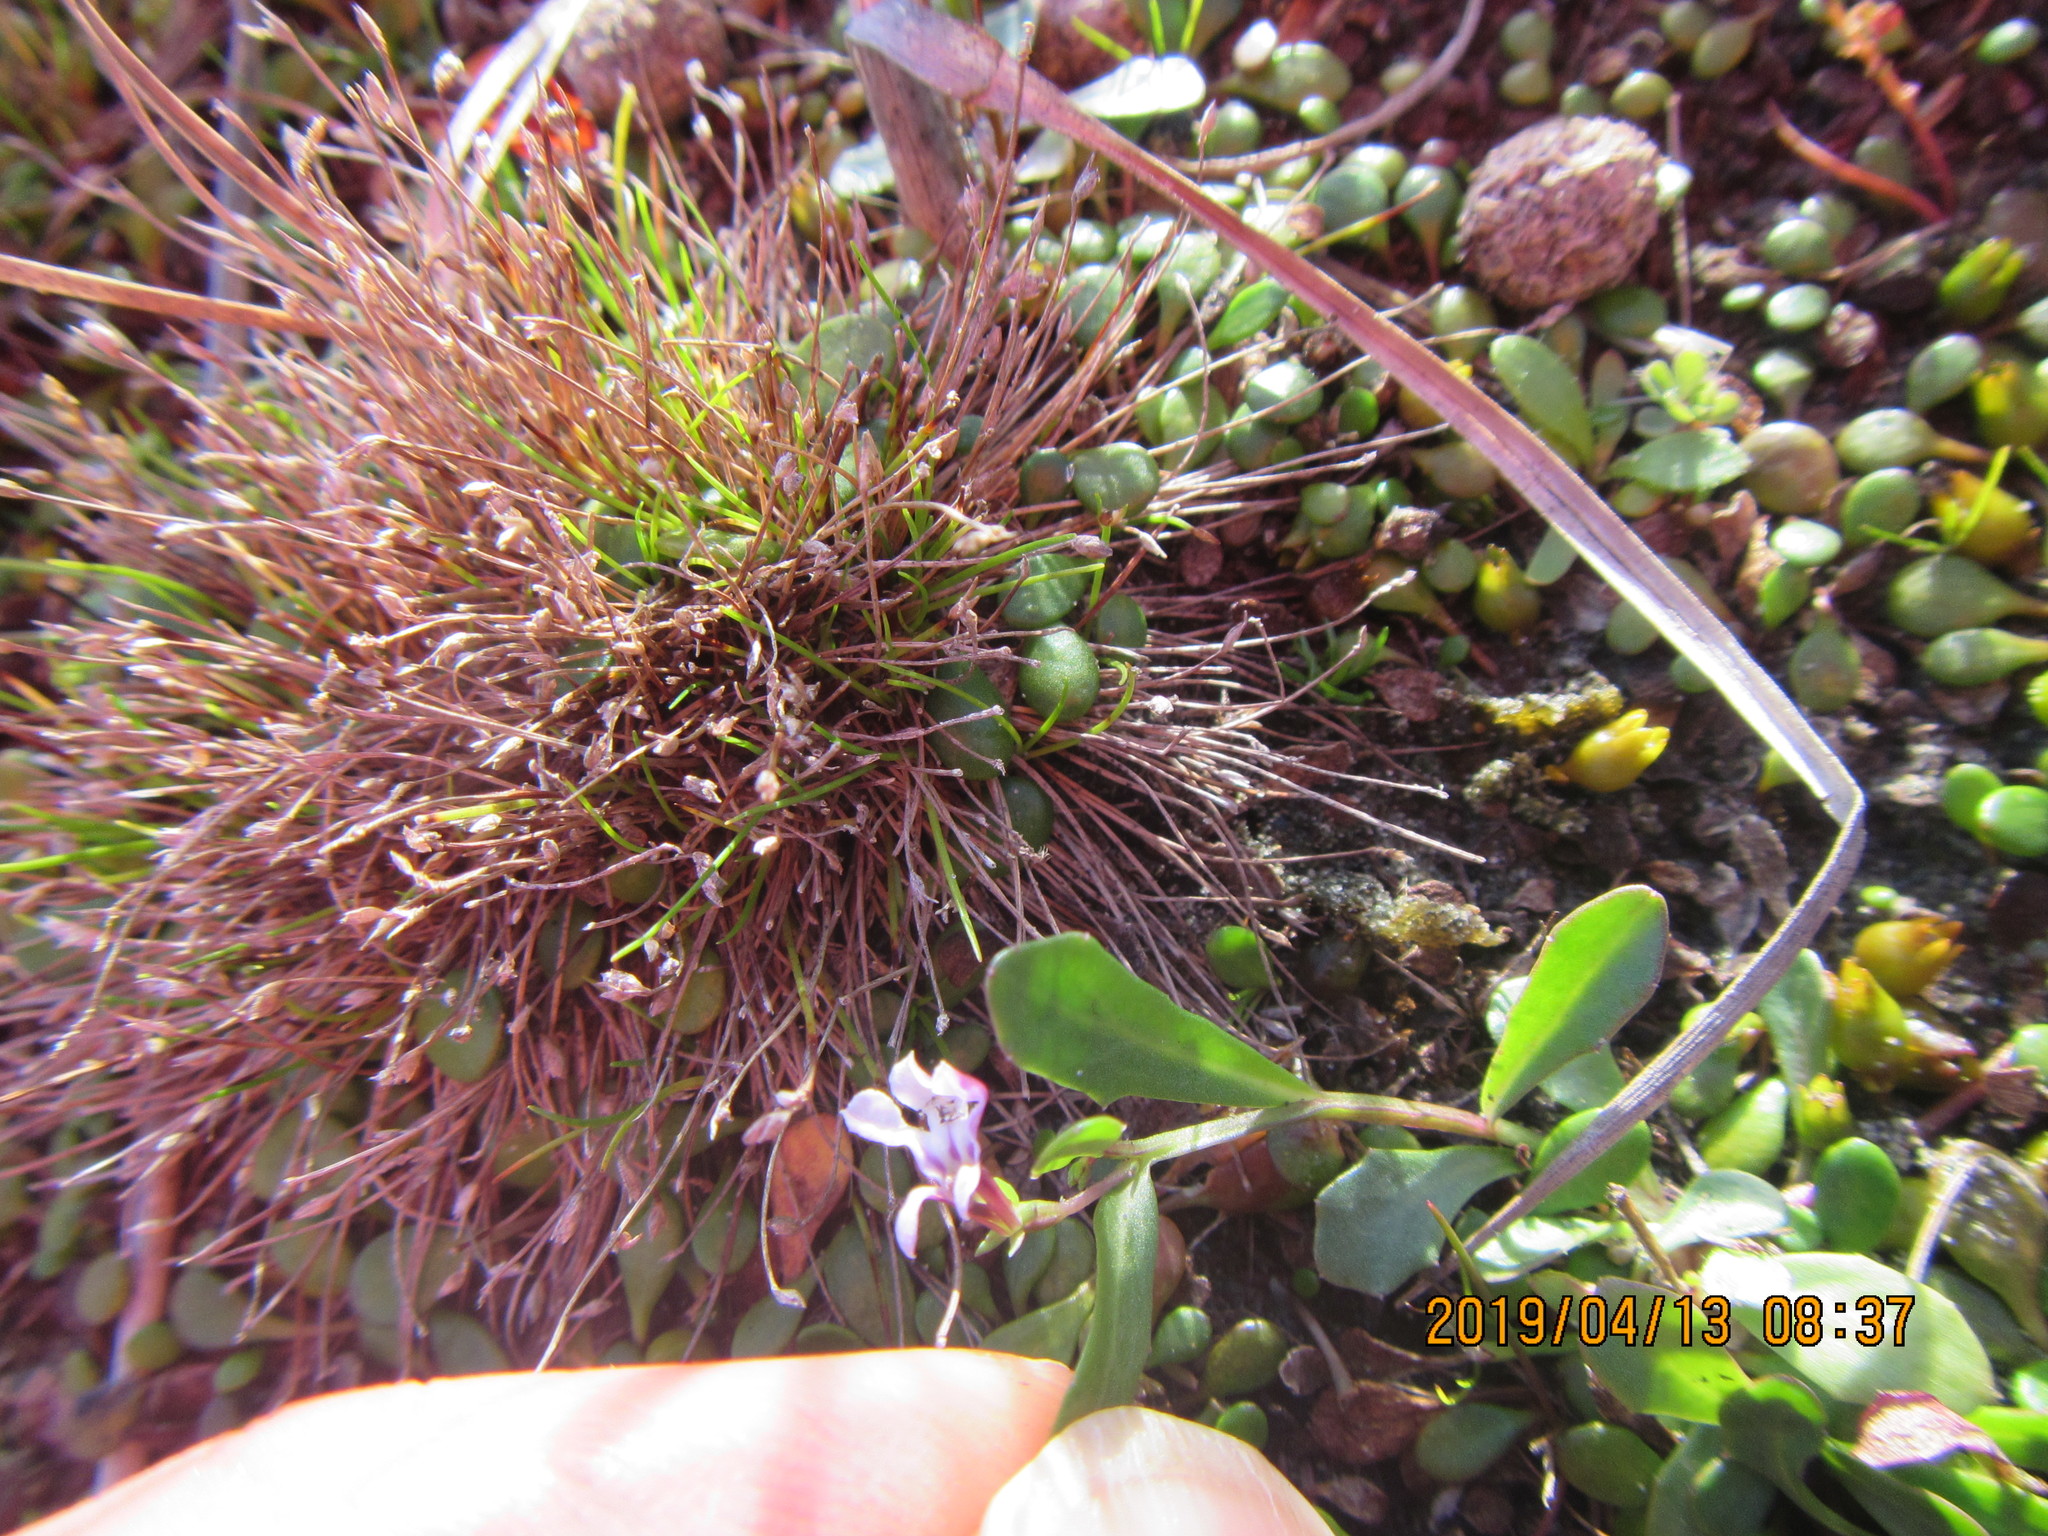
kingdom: Plantae
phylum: Tracheophyta
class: Magnoliopsida
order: Asterales
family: Campanulaceae
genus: Lobelia
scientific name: Lobelia anceps
